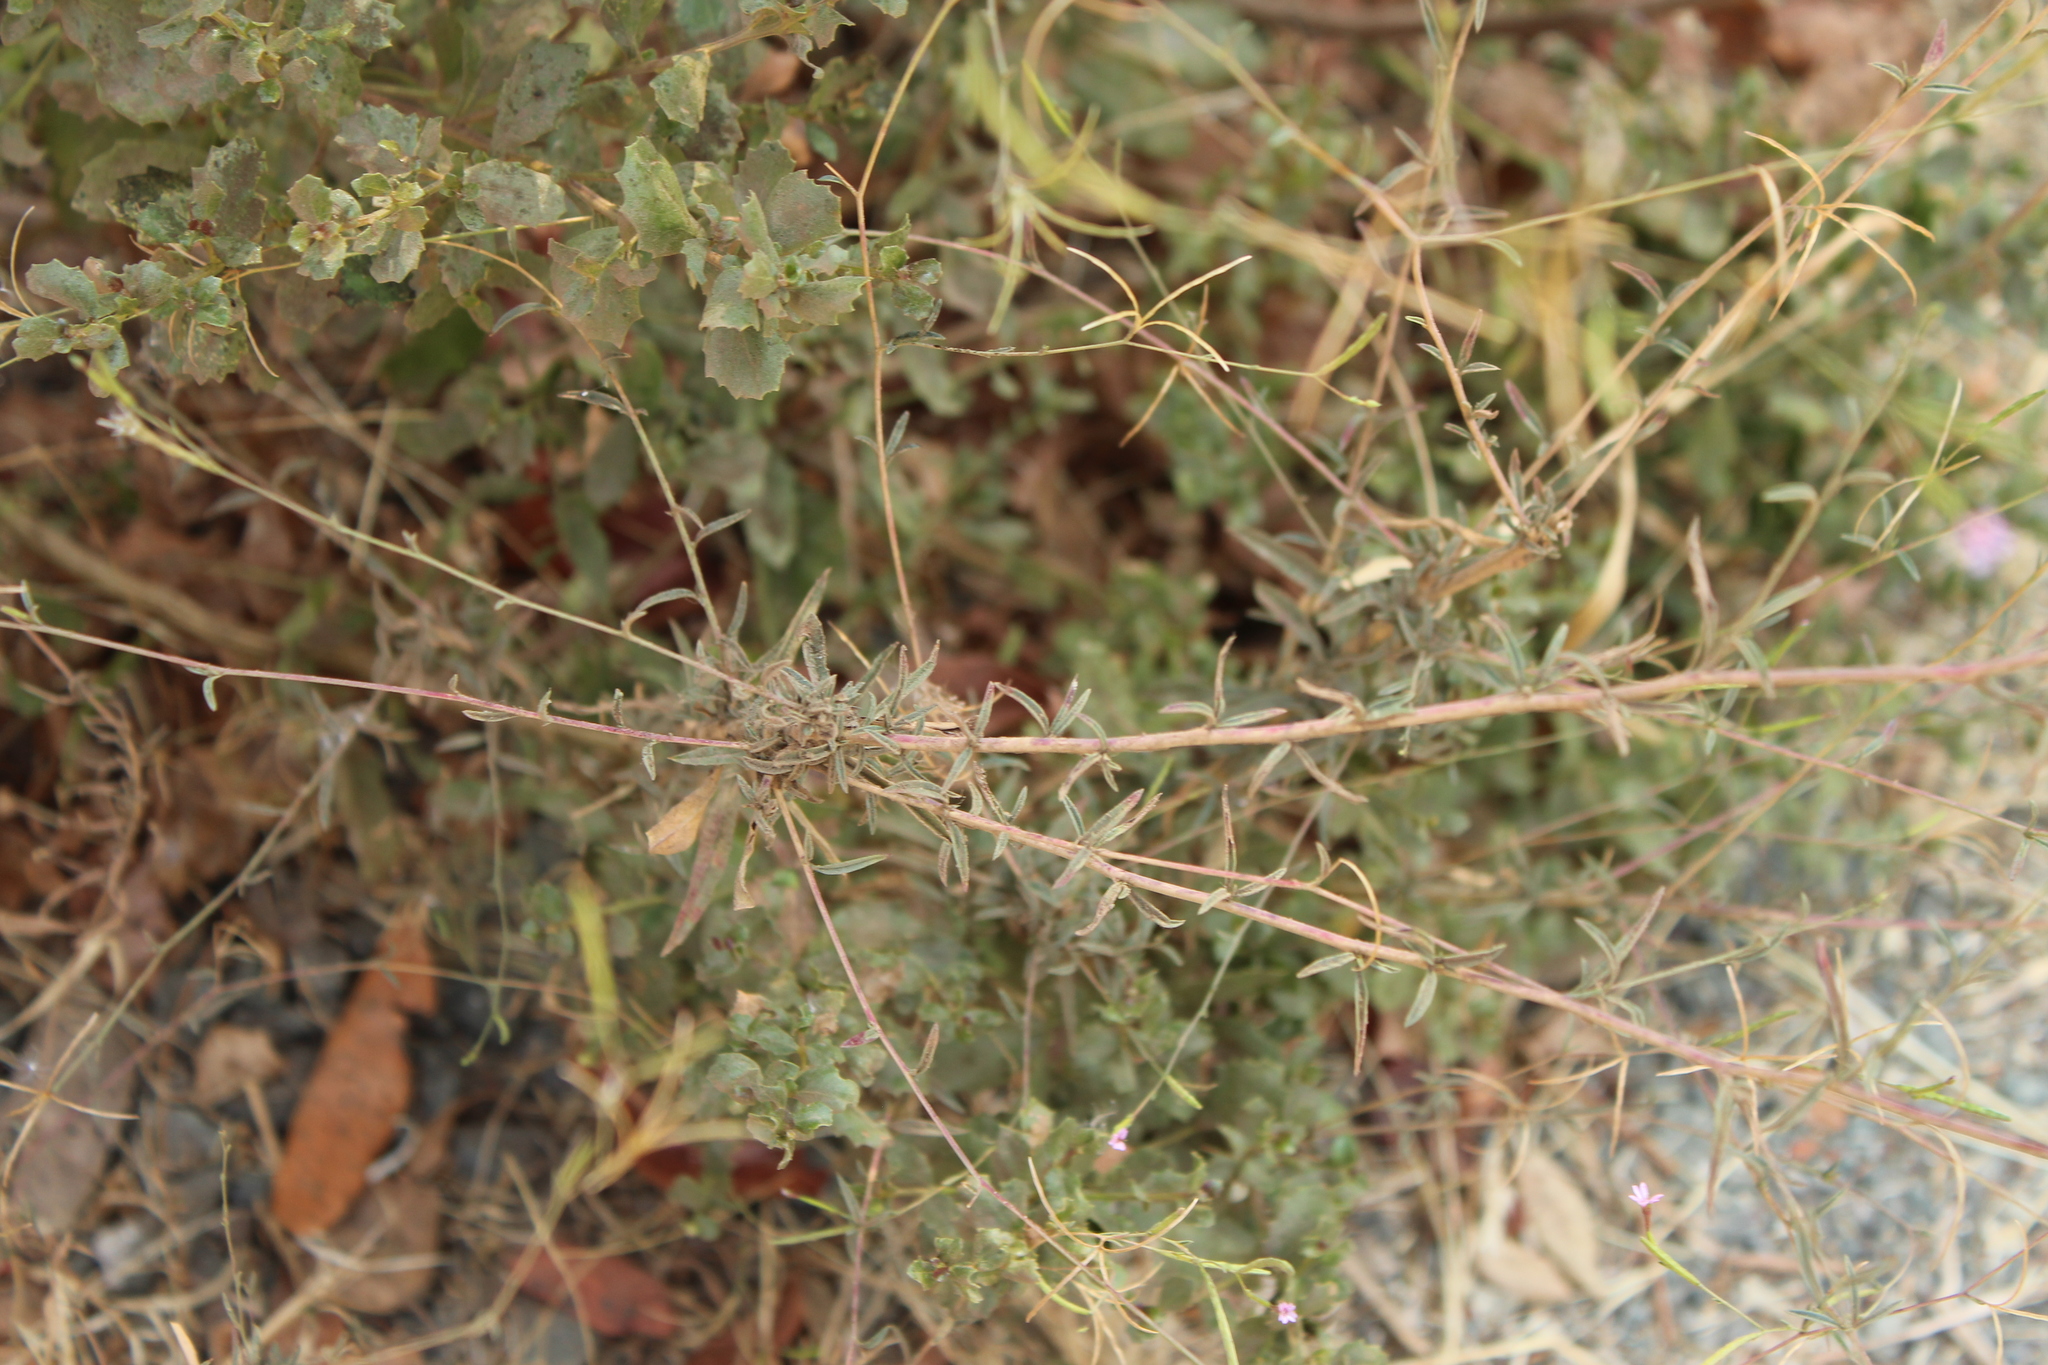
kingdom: Plantae
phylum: Tracheophyta
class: Magnoliopsida
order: Myrtales
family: Onagraceae
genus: Epilobium
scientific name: Epilobium brachycarpum
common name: Annual willowherb
